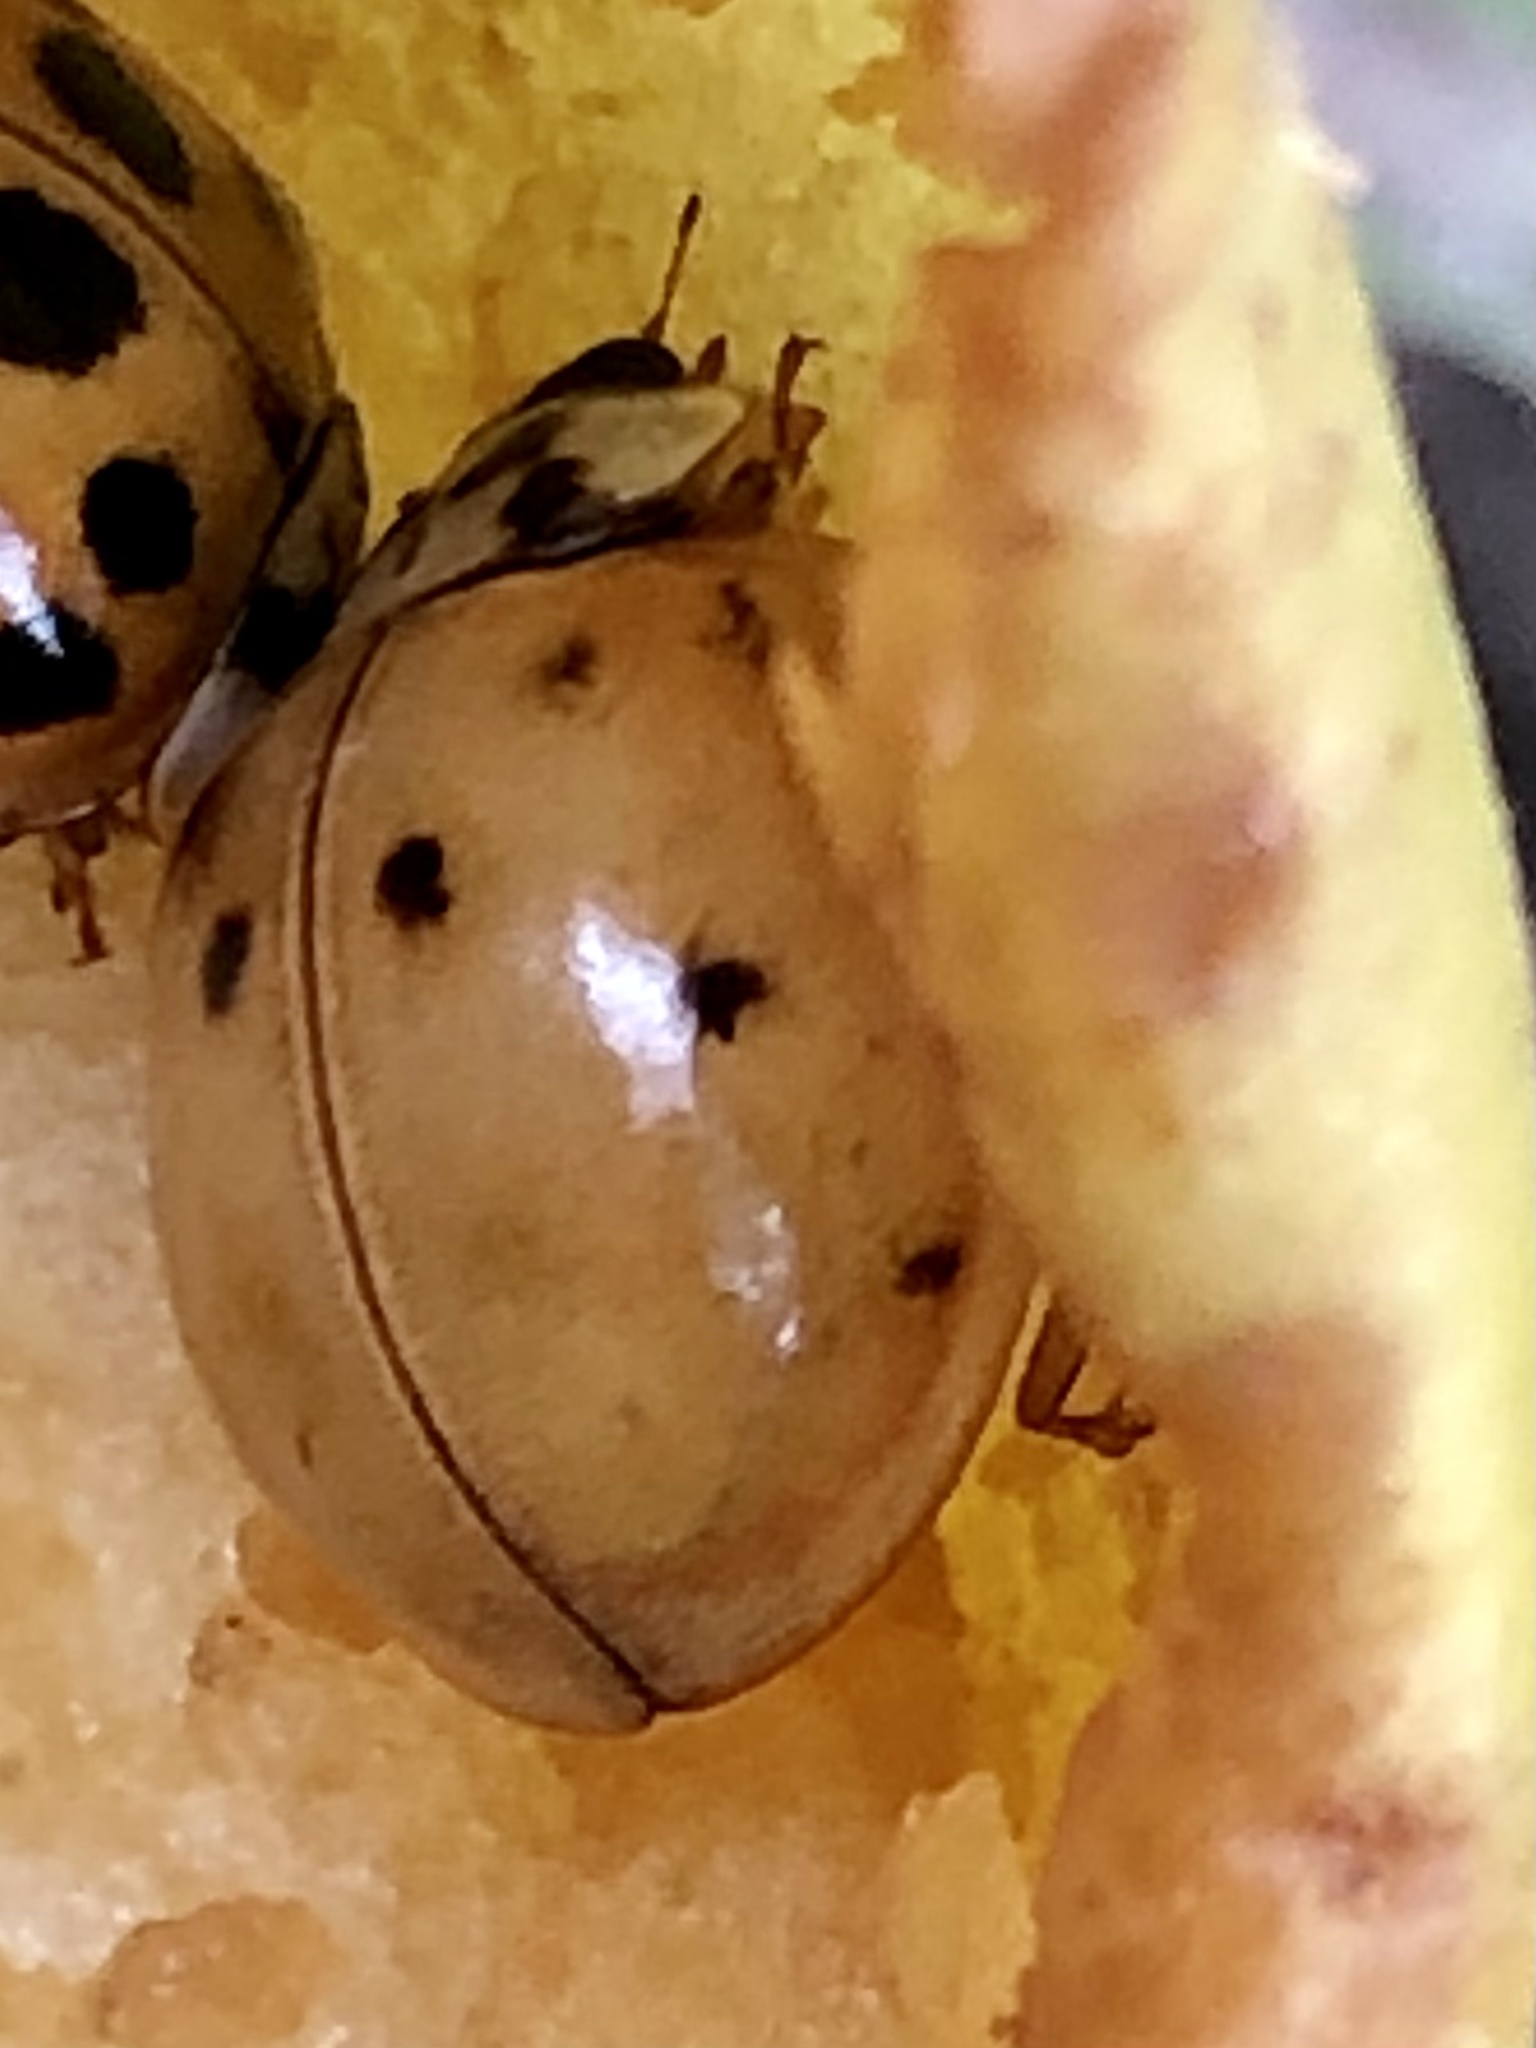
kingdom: Animalia
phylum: Arthropoda
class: Insecta
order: Coleoptera
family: Coccinellidae
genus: Harmonia
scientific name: Harmonia axyridis
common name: Harlequin ladybird
